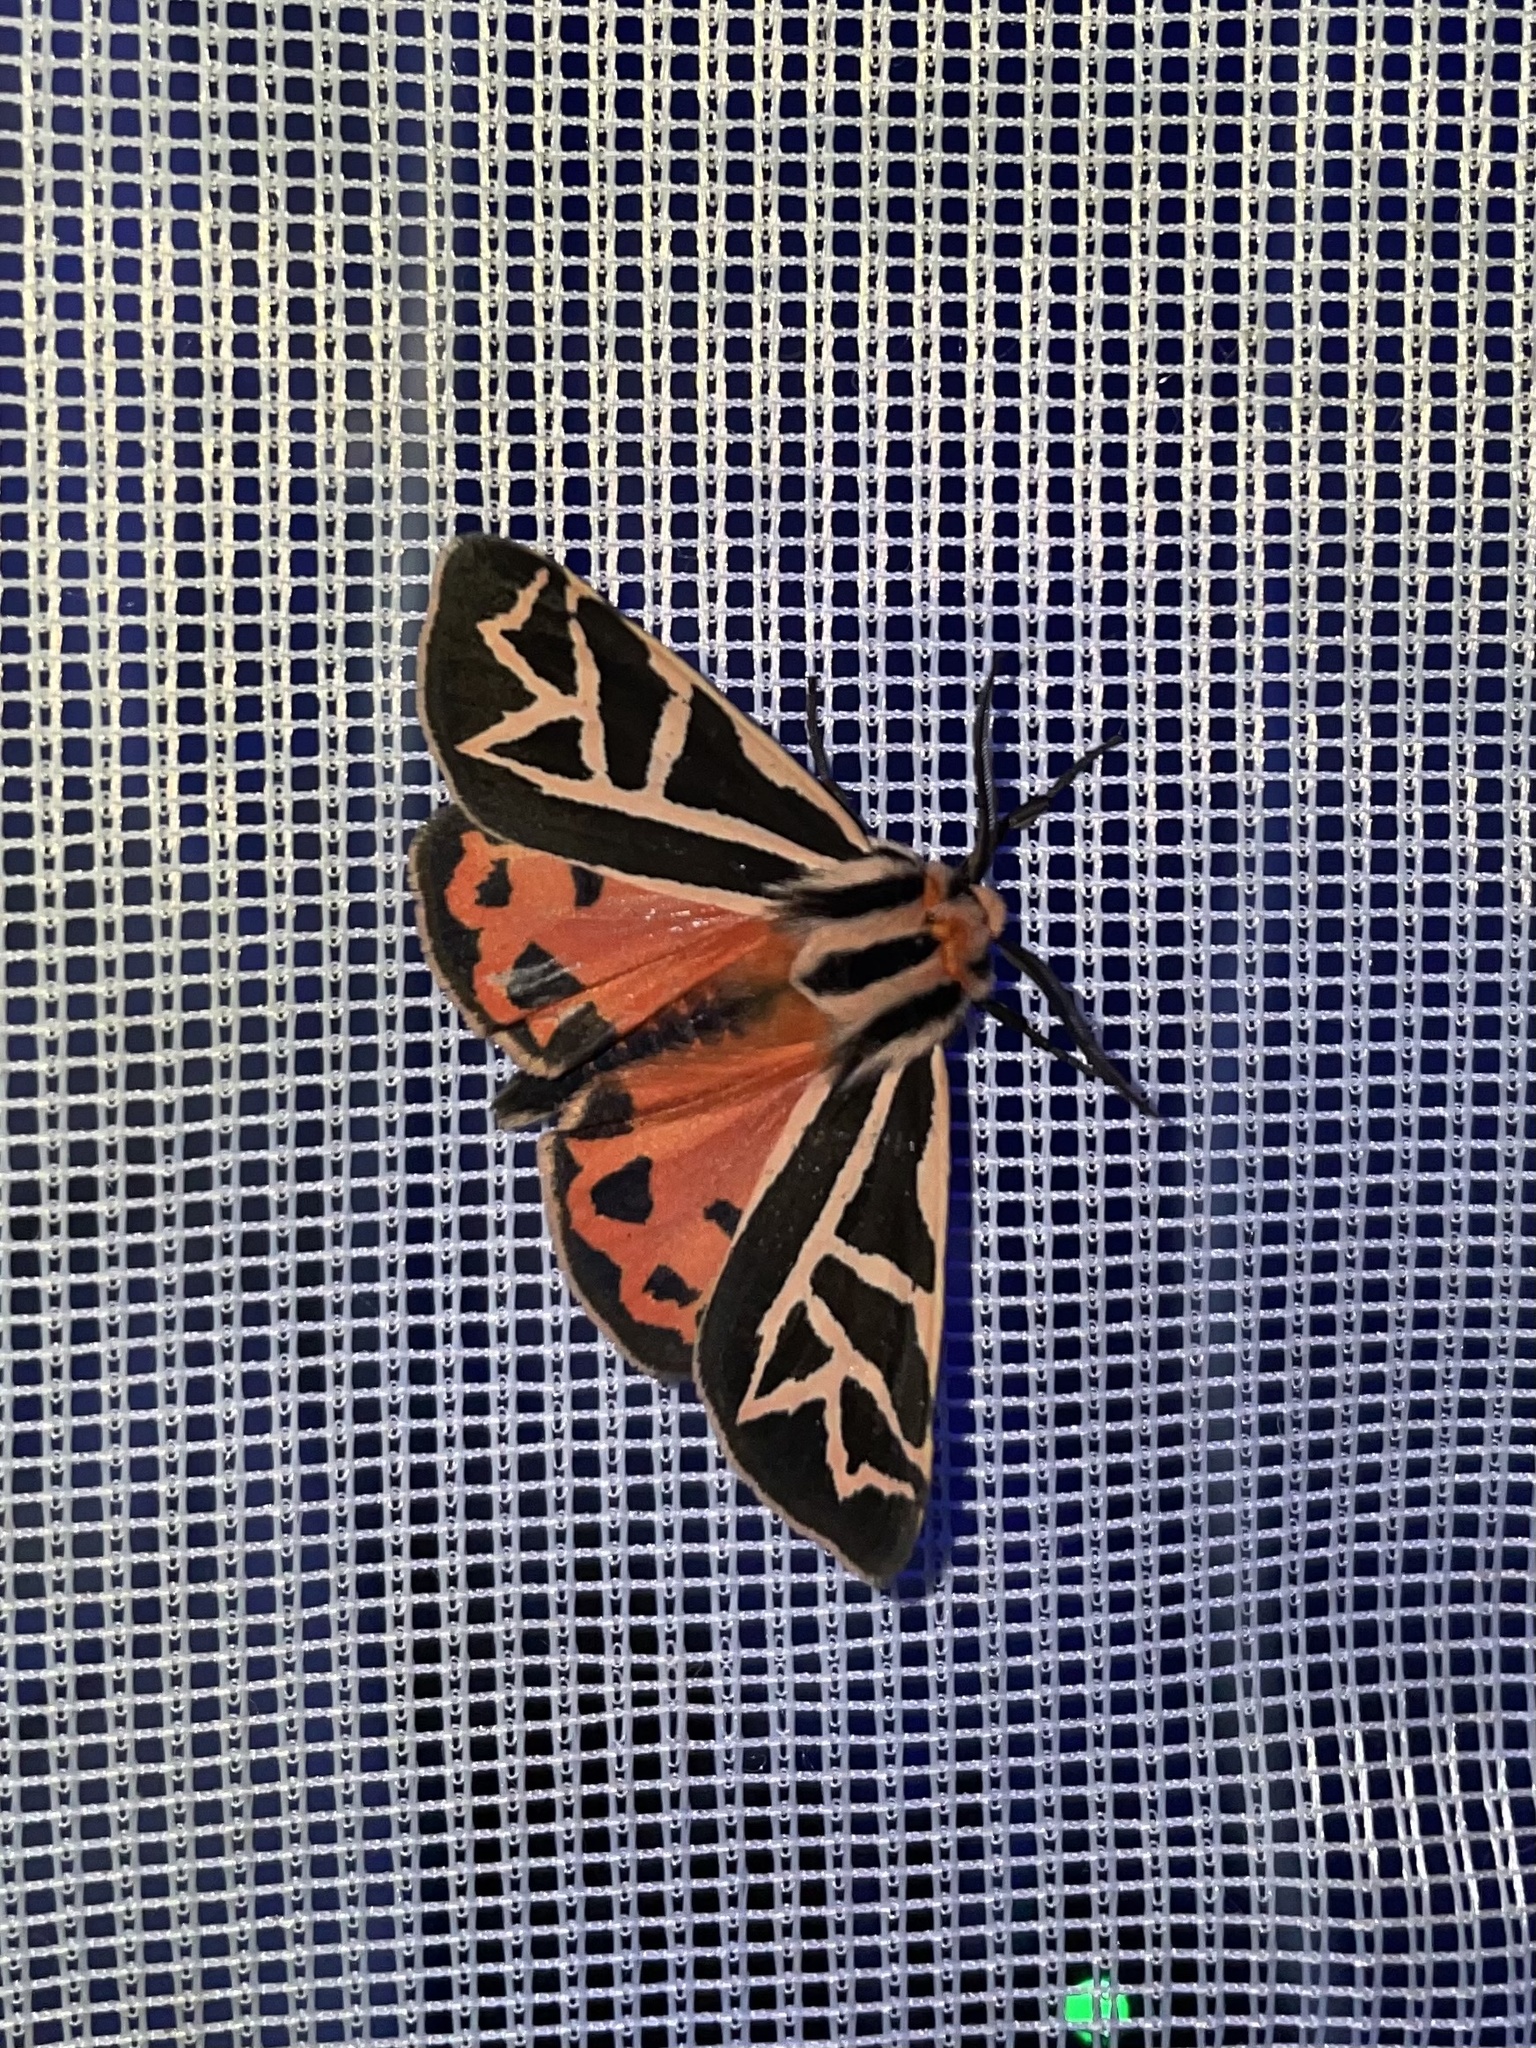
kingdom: Animalia
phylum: Arthropoda
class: Insecta
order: Lepidoptera
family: Erebidae
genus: Apantesis
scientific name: Apantesis
